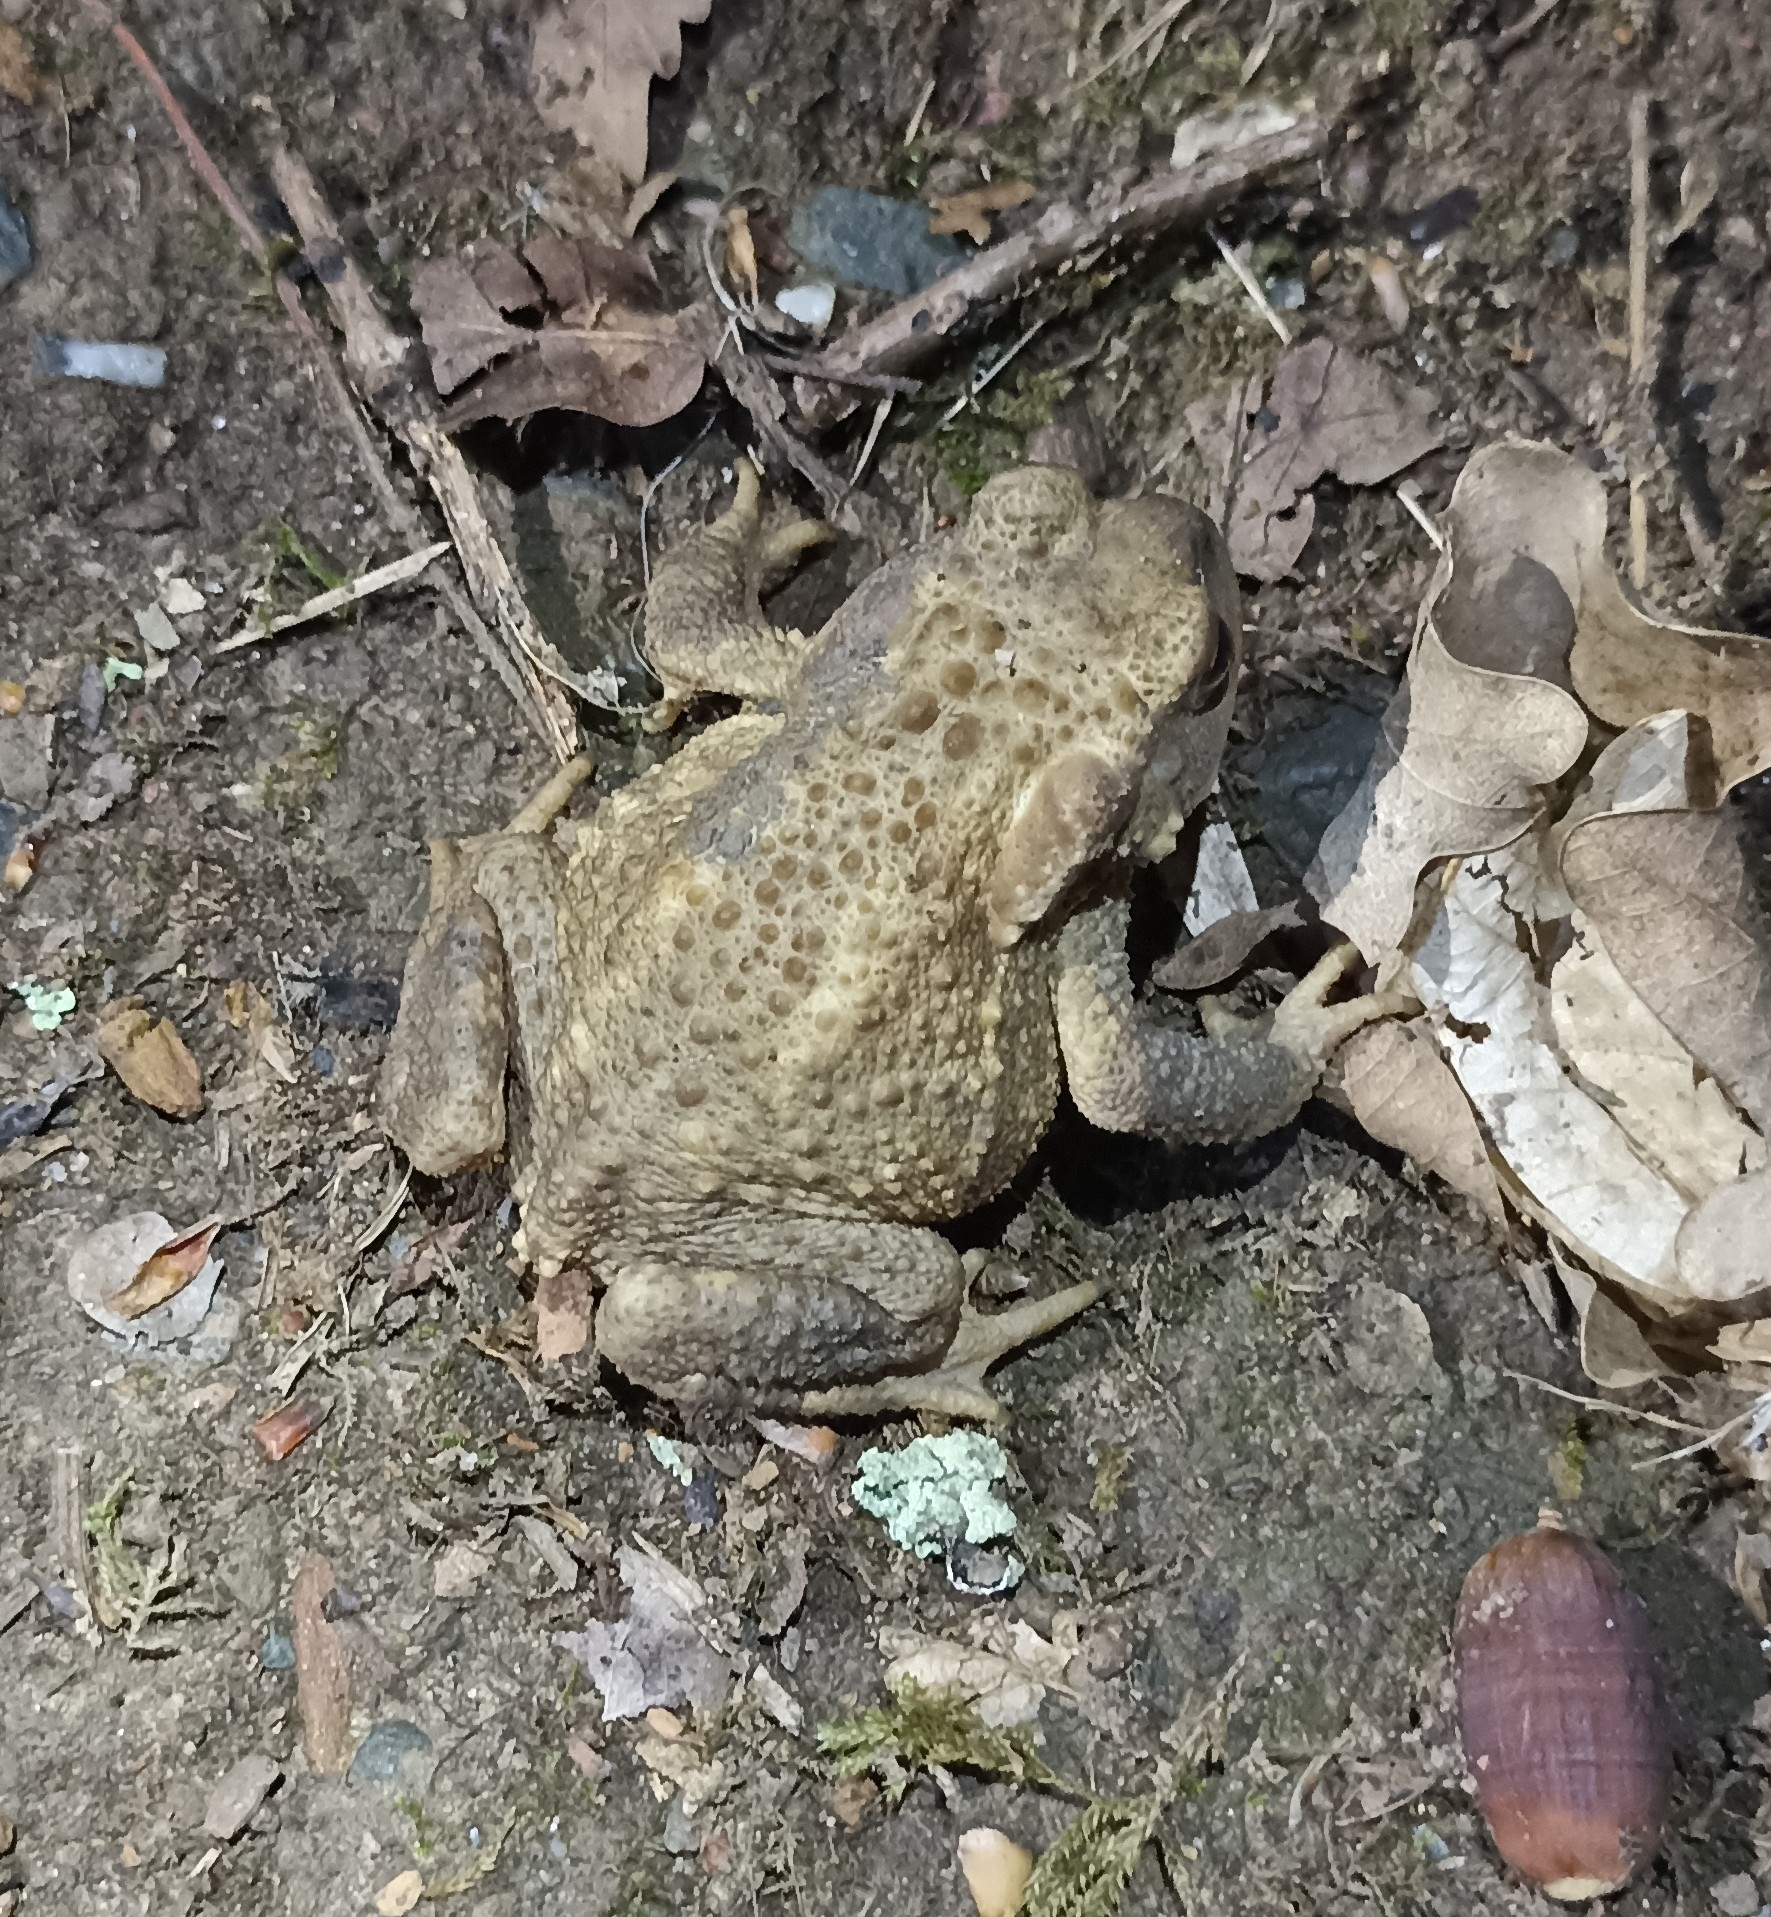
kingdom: Animalia
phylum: Chordata
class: Amphibia
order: Anura
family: Bufonidae
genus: Bufo
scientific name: Bufo spinosus
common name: Western common toad
